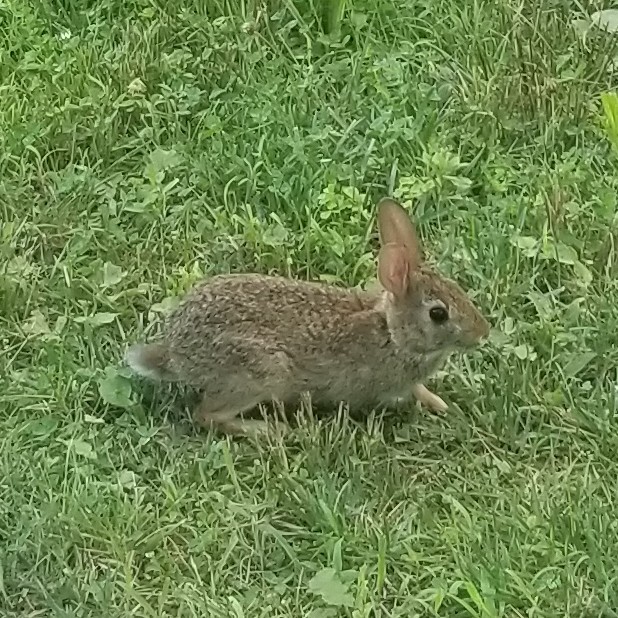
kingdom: Animalia
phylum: Chordata
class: Mammalia
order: Lagomorpha
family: Leporidae
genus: Sylvilagus
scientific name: Sylvilagus floridanus
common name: Eastern cottontail
